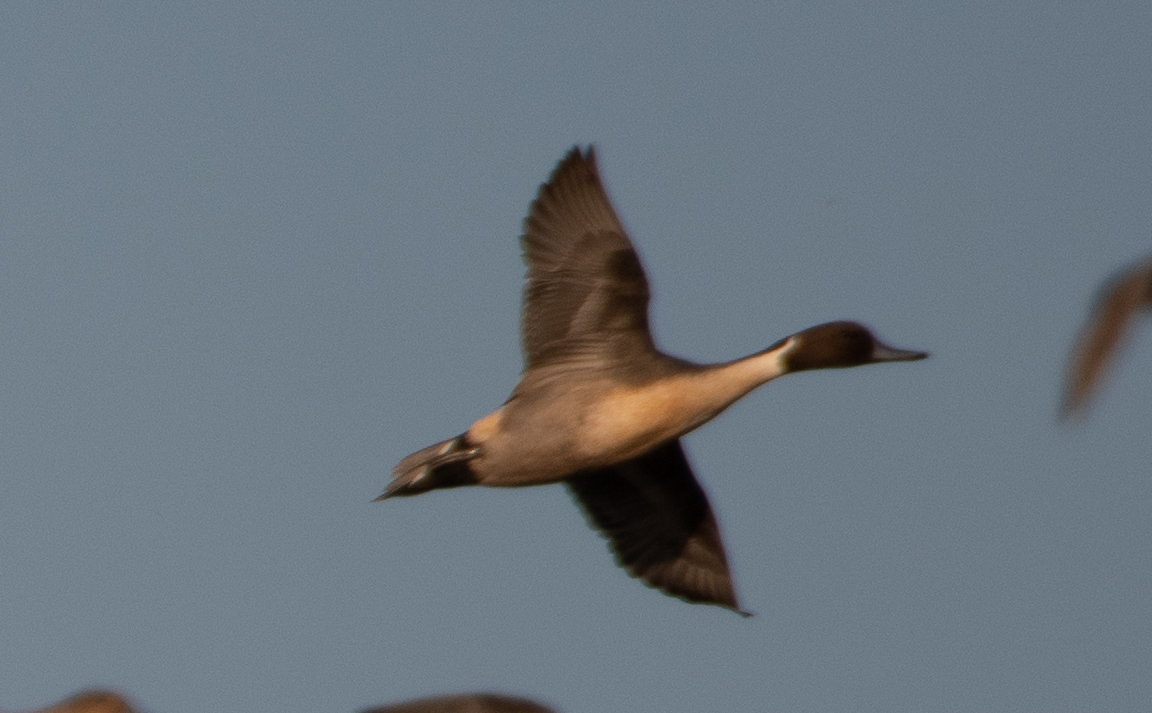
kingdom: Animalia
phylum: Chordata
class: Aves
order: Anseriformes
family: Anatidae
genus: Anas
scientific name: Anas acuta
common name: Northern pintail
